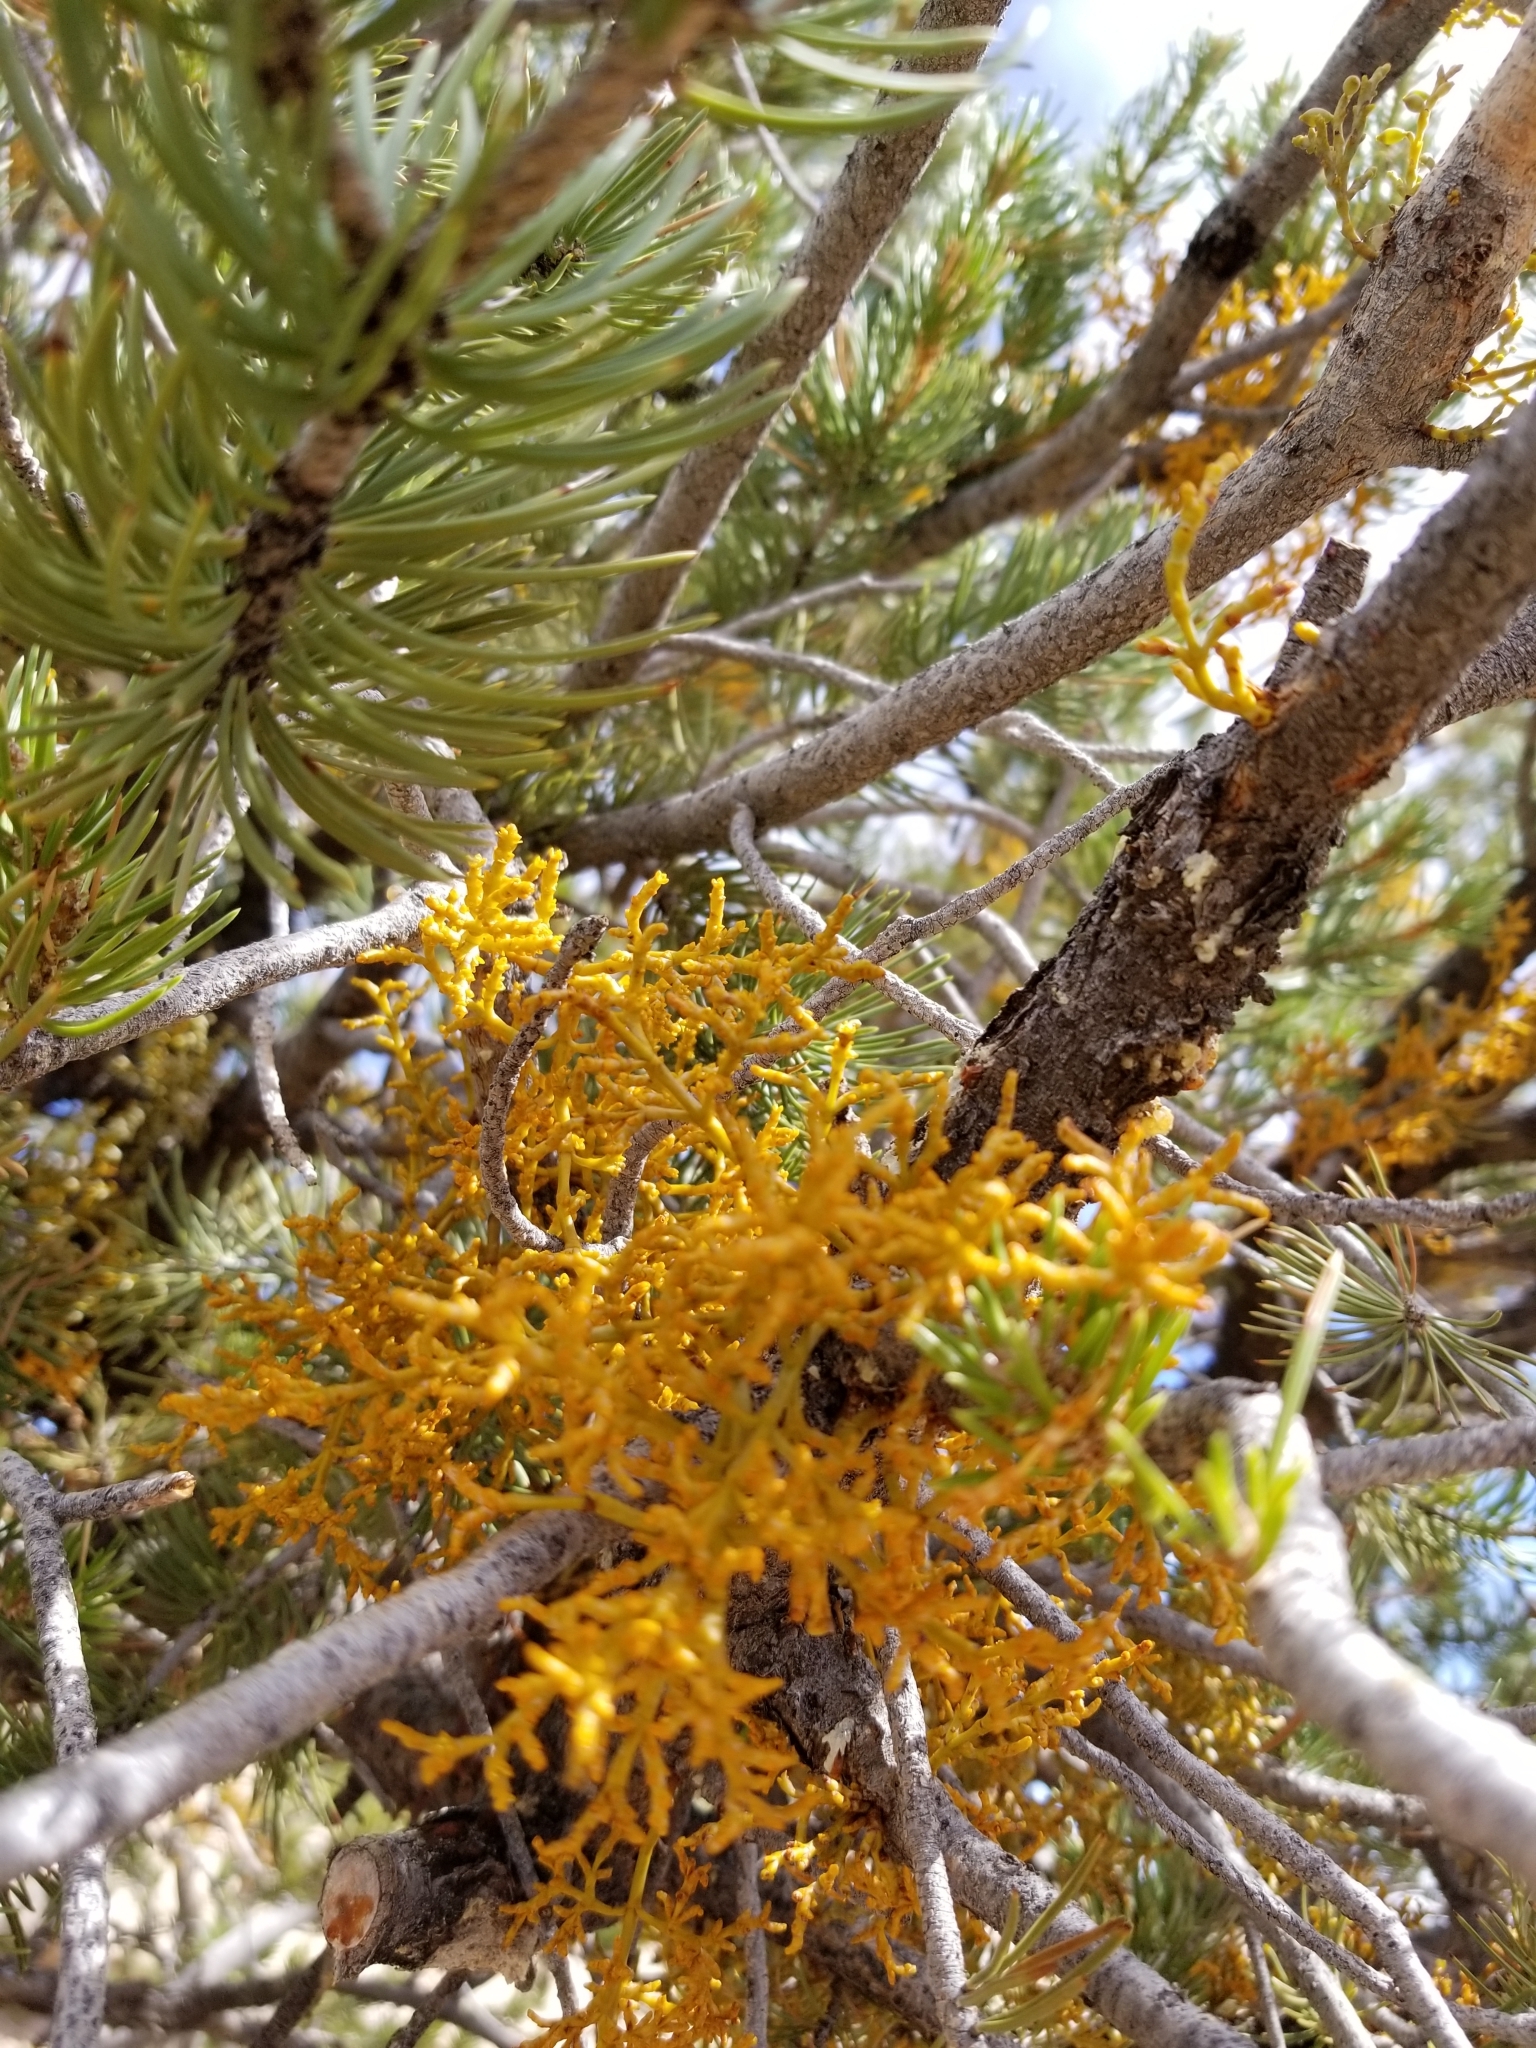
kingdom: Plantae
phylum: Tracheophyta
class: Magnoliopsida
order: Santalales
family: Viscaceae
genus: Arceuthobium
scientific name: Arceuthobium divaricatum
